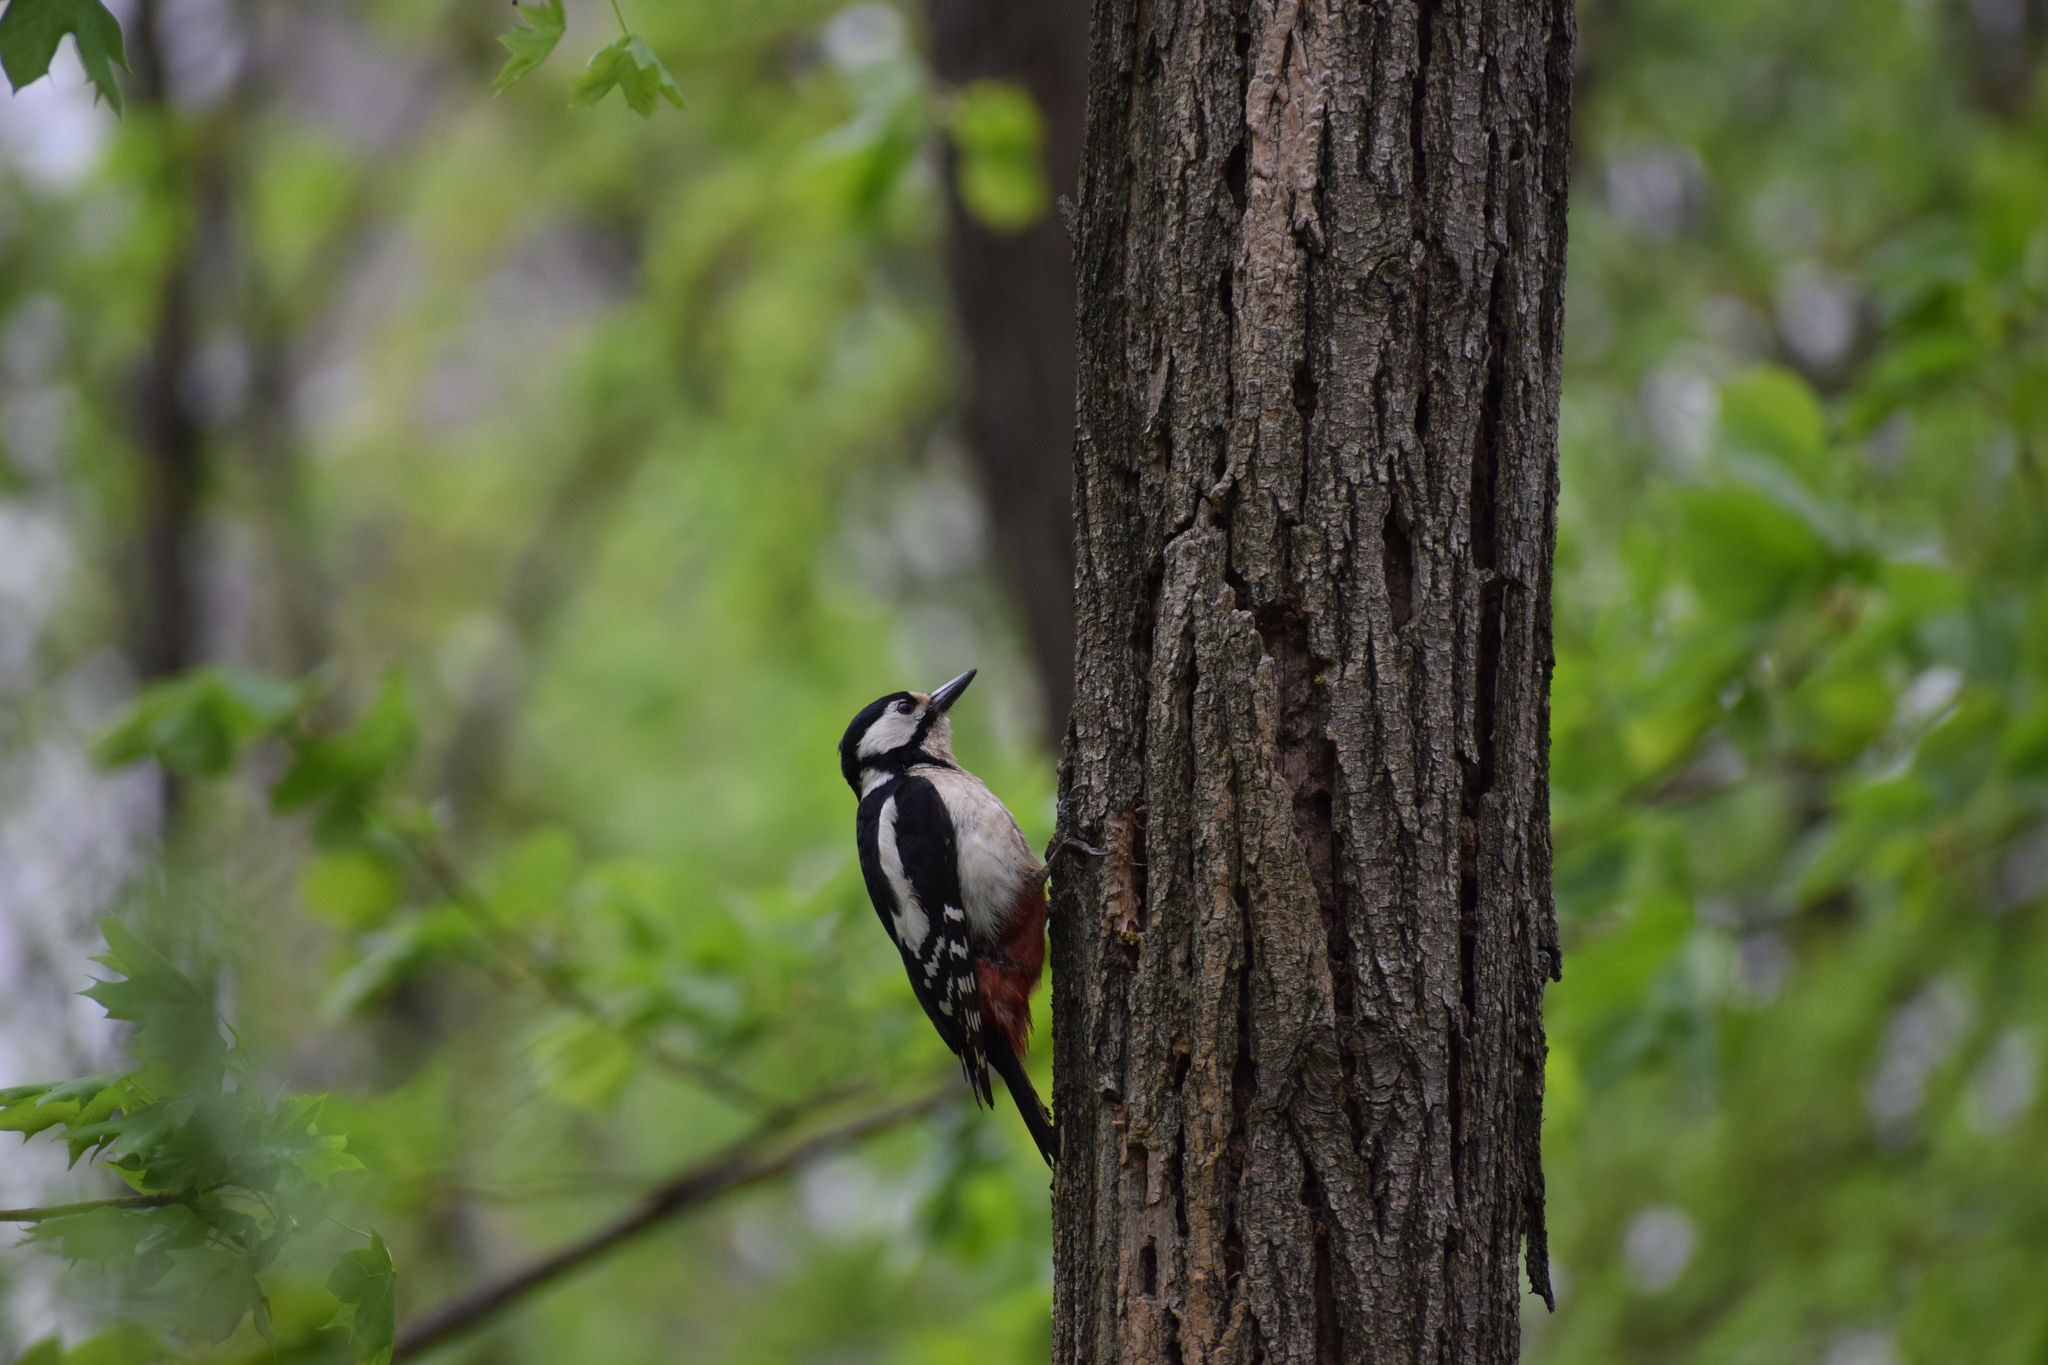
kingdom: Animalia
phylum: Chordata
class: Aves
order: Piciformes
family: Picidae
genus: Dendrocopos
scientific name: Dendrocopos major
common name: Great spotted woodpecker
